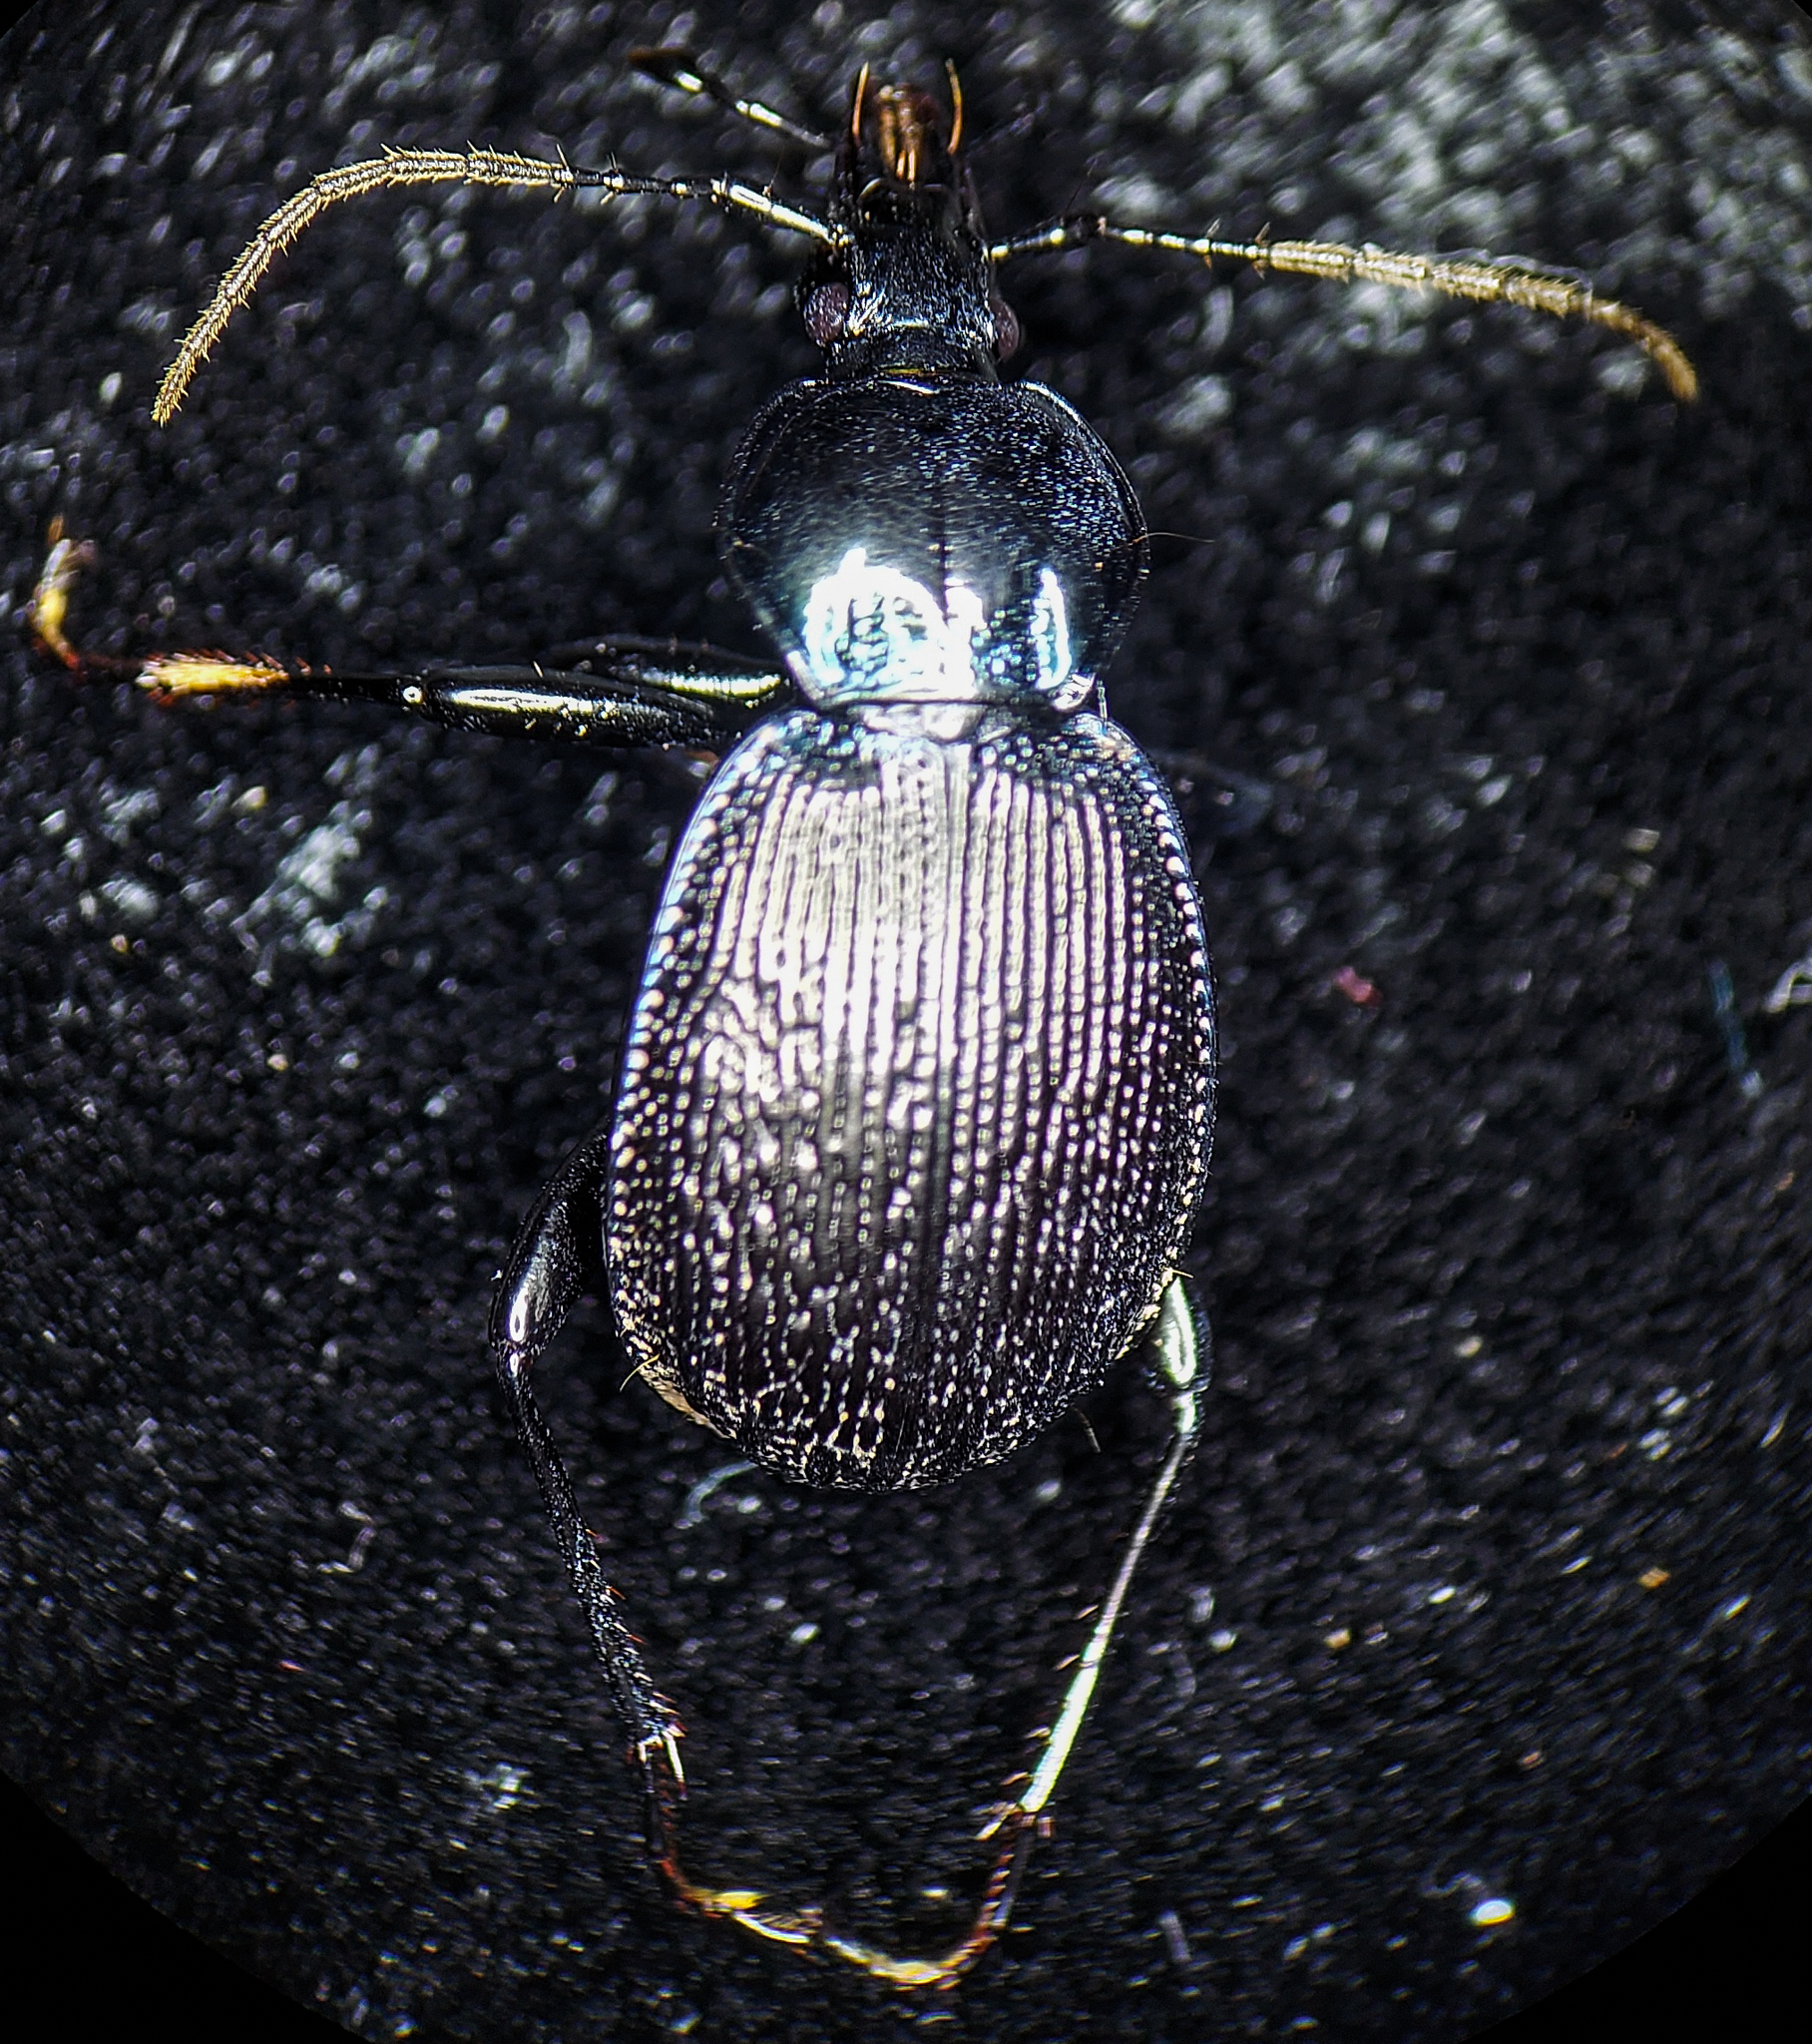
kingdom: Animalia
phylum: Arthropoda
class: Insecta
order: Coleoptera
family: Carabidae
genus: Sphaeroderus
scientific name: Sphaeroderus stenostomus
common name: Small snail-eating ground beetle
